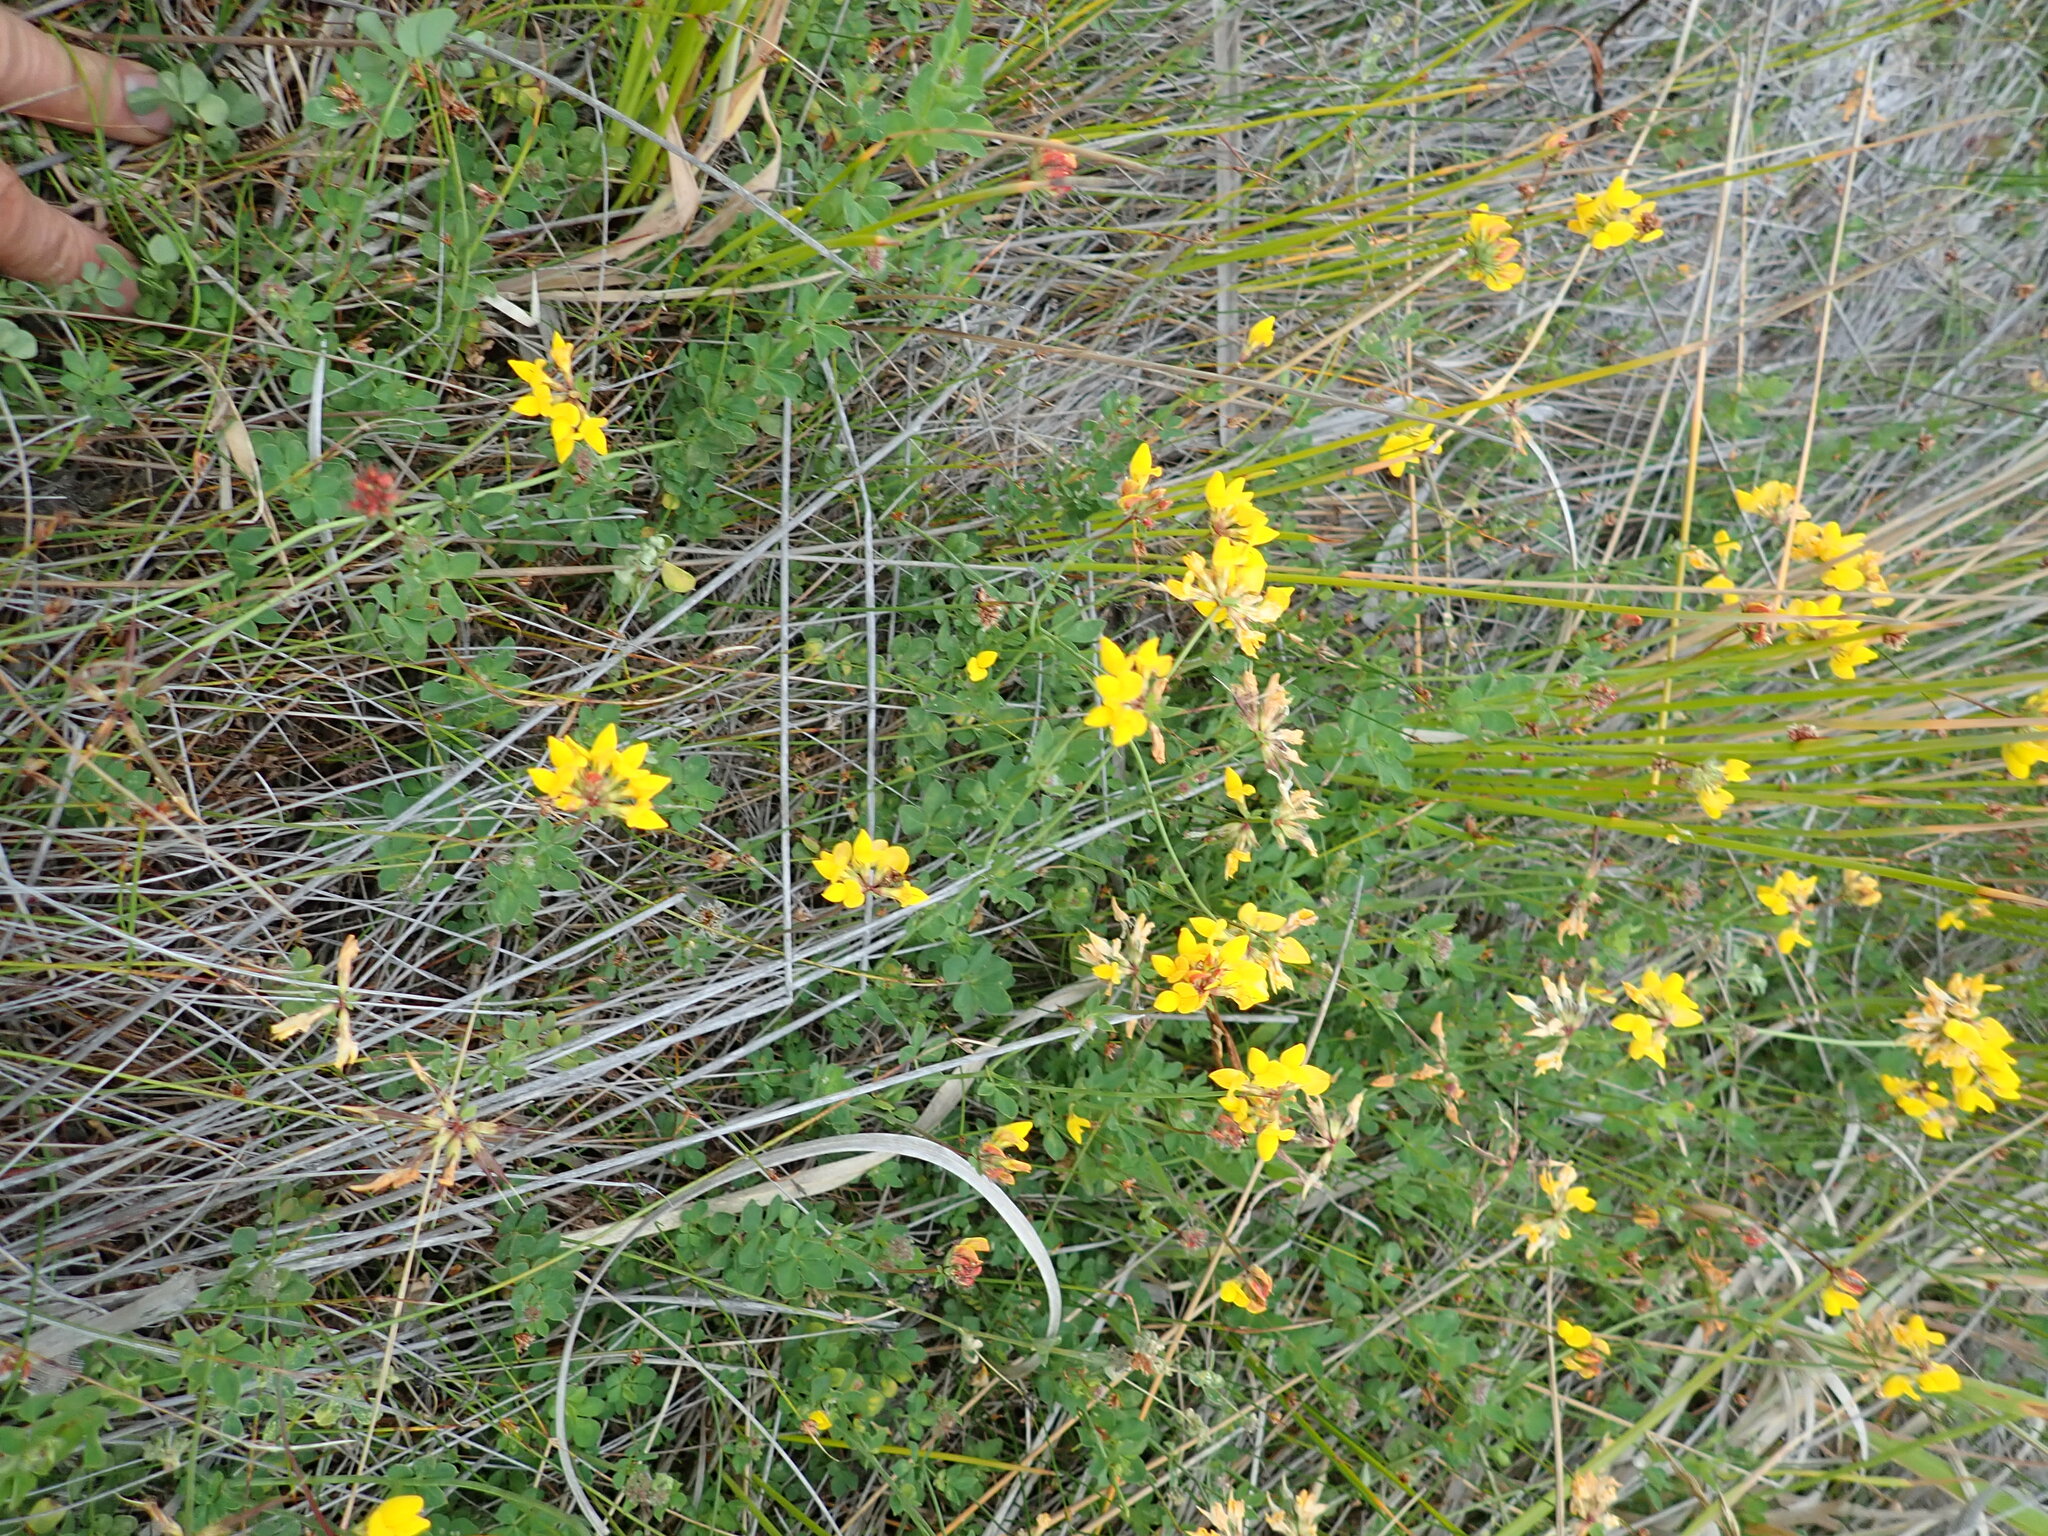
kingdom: Plantae
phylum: Tracheophyta
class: Magnoliopsida
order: Fabales
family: Fabaceae
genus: Lotus
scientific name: Lotus pedunculatus
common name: Greater birdsfoot-trefoil
